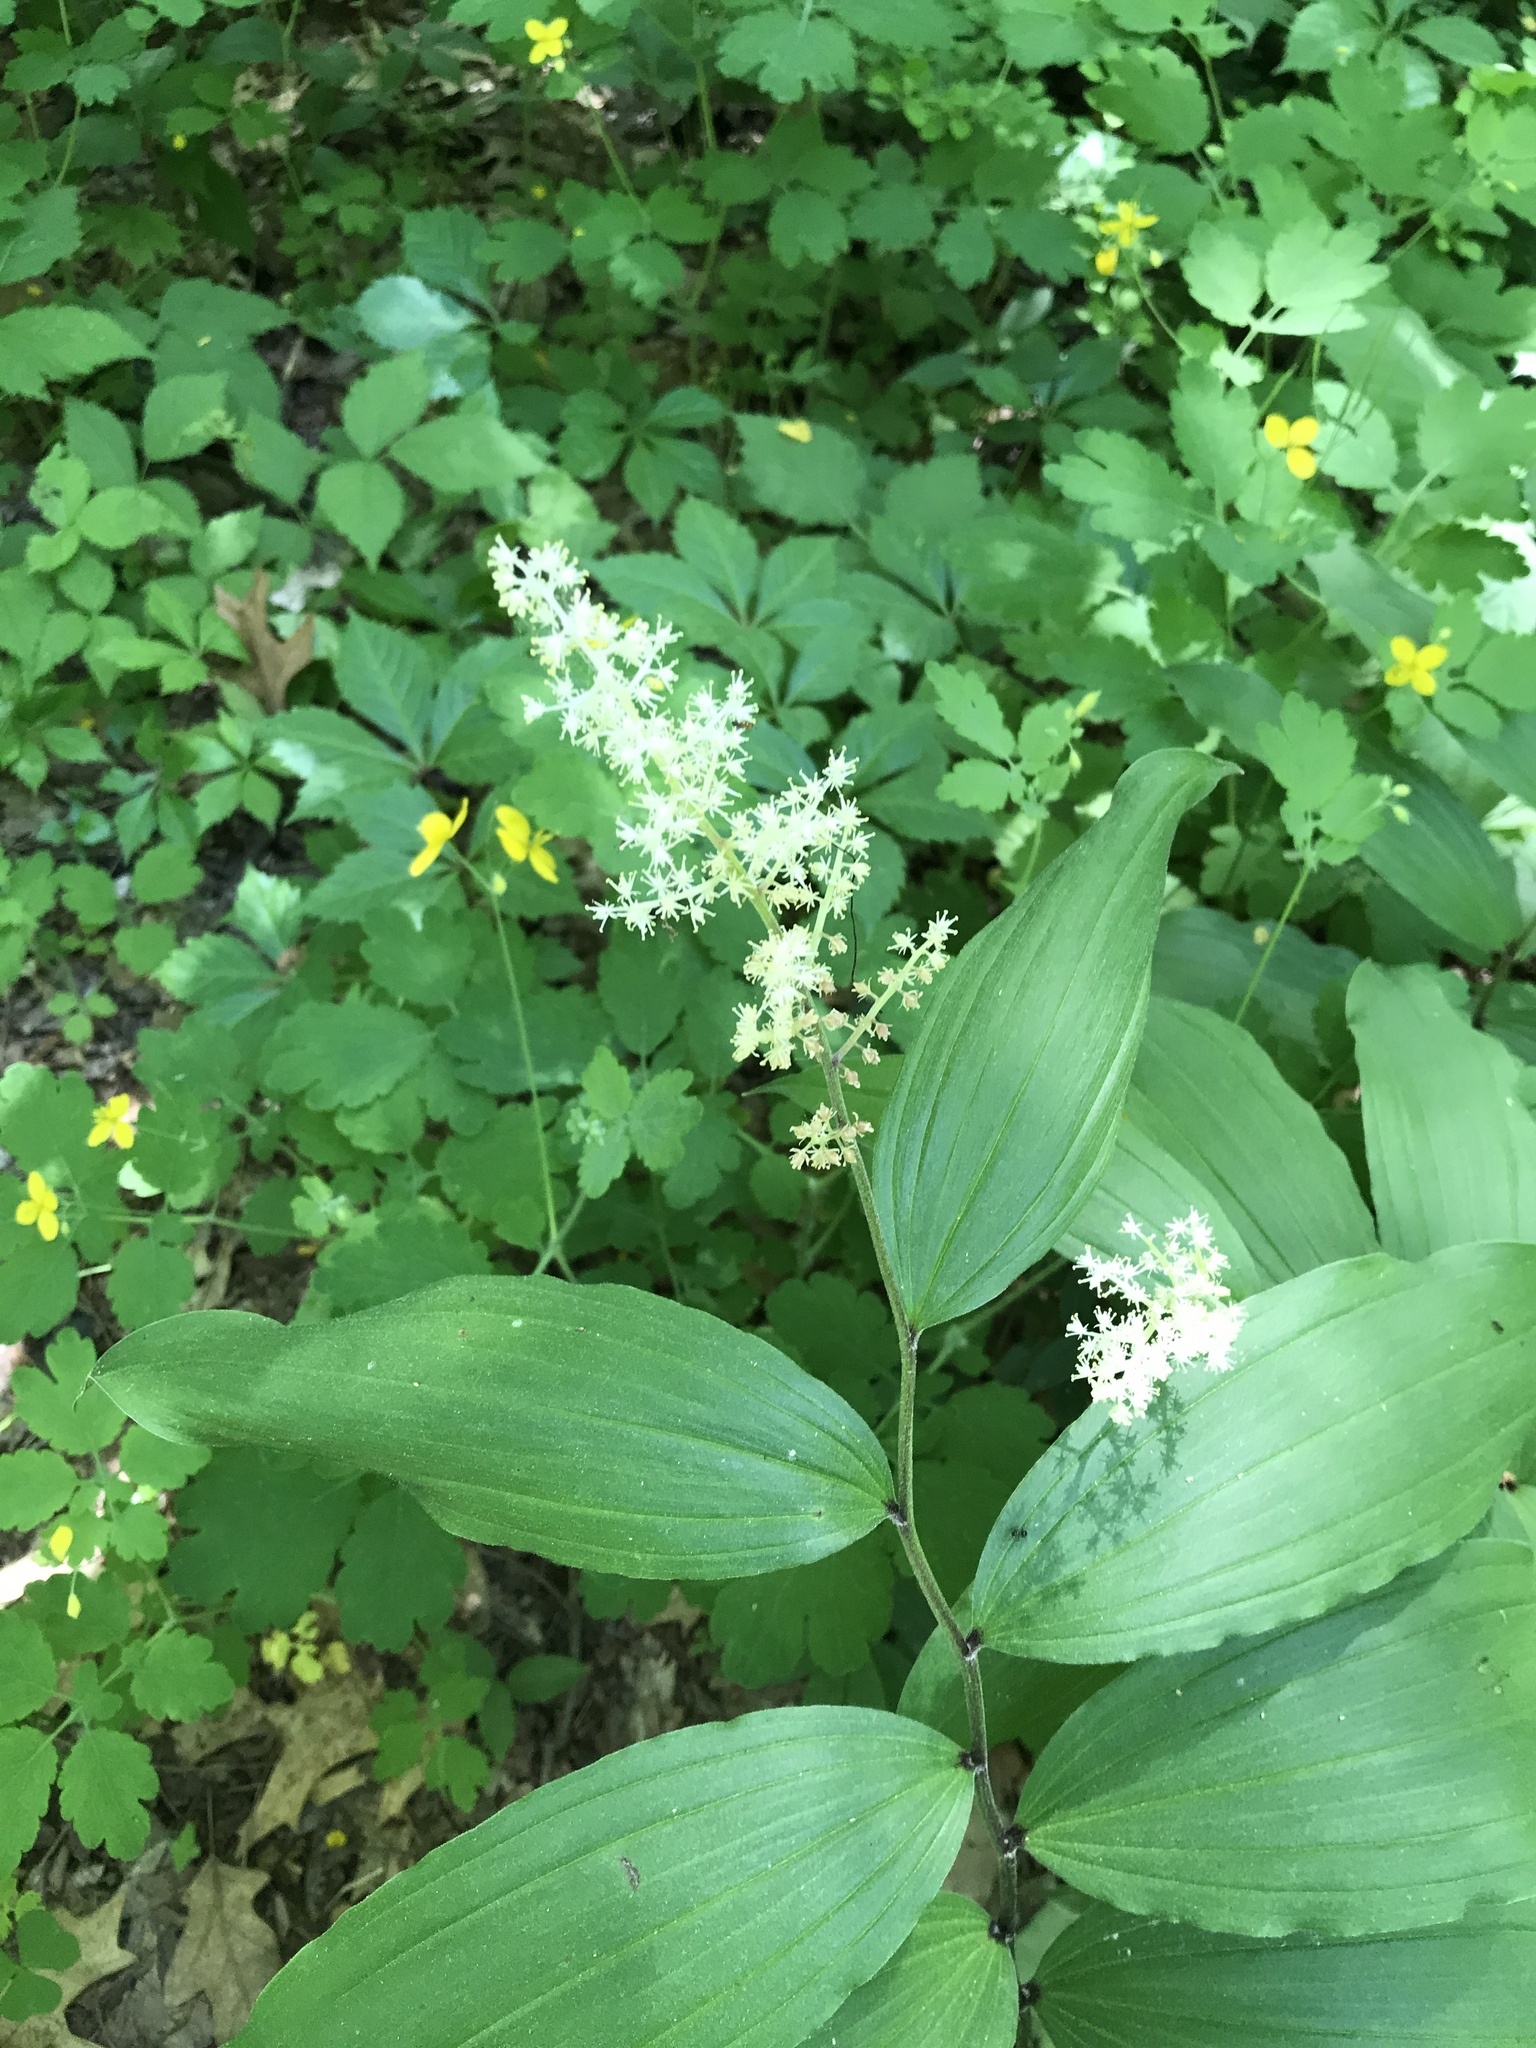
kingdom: Plantae
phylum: Tracheophyta
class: Liliopsida
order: Asparagales
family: Asparagaceae
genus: Maianthemum
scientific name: Maianthemum racemosum
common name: False spikenard
